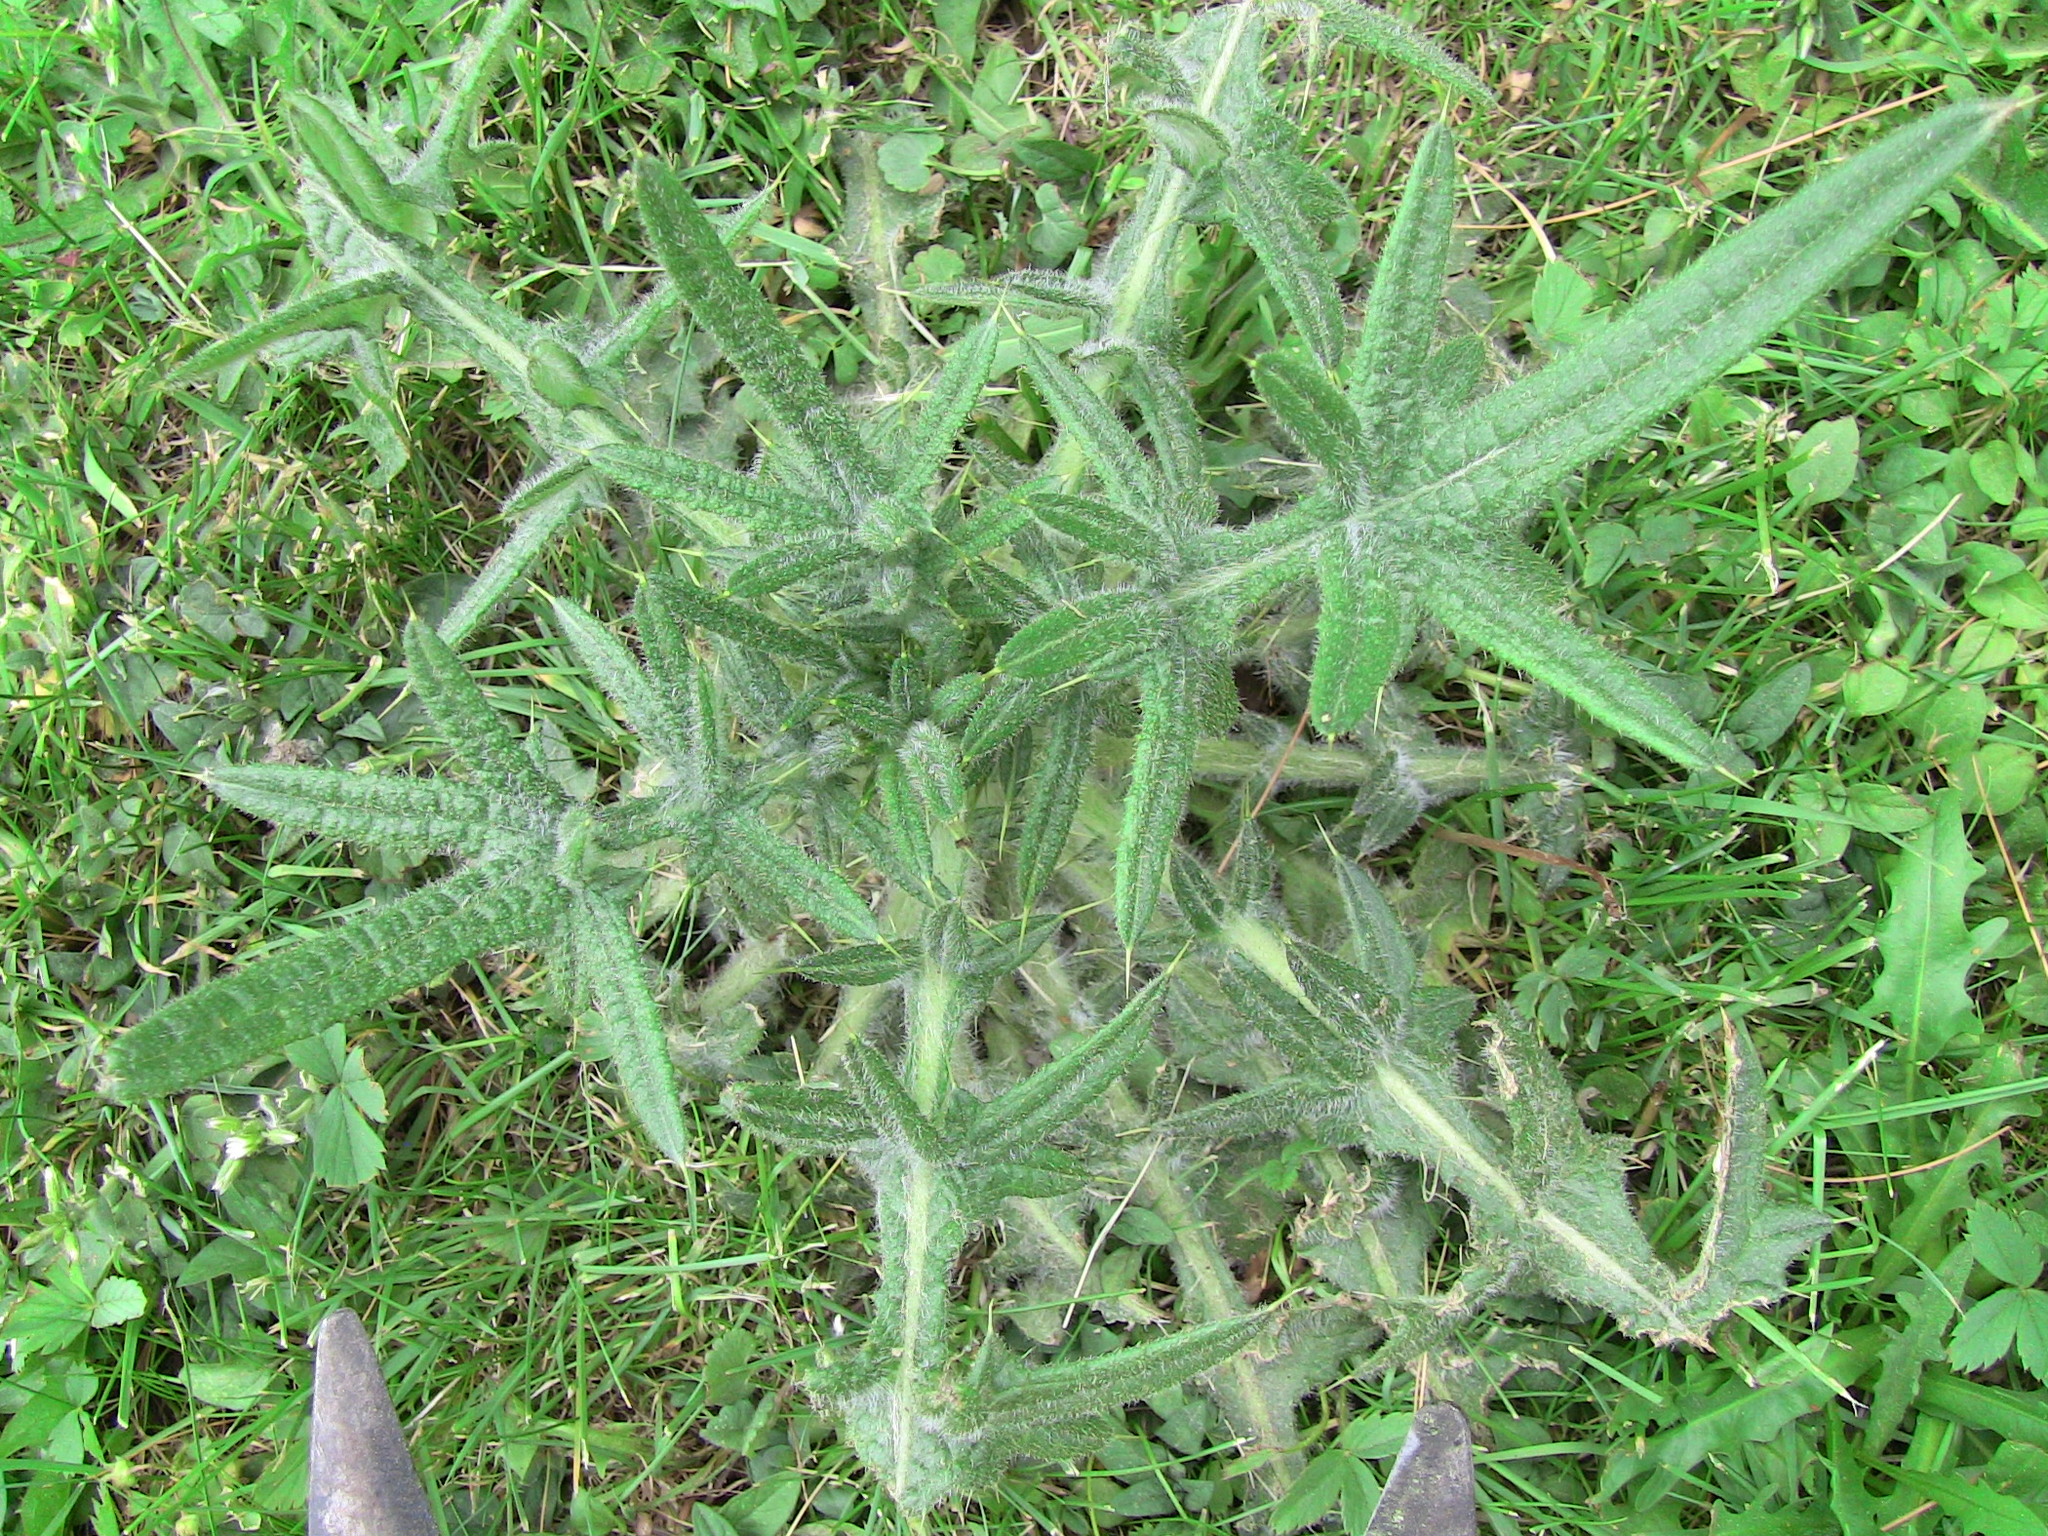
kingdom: Plantae
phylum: Tracheophyta
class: Magnoliopsida
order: Asterales
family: Asteraceae
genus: Cirsium
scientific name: Cirsium vulgare
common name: Bull thistle
